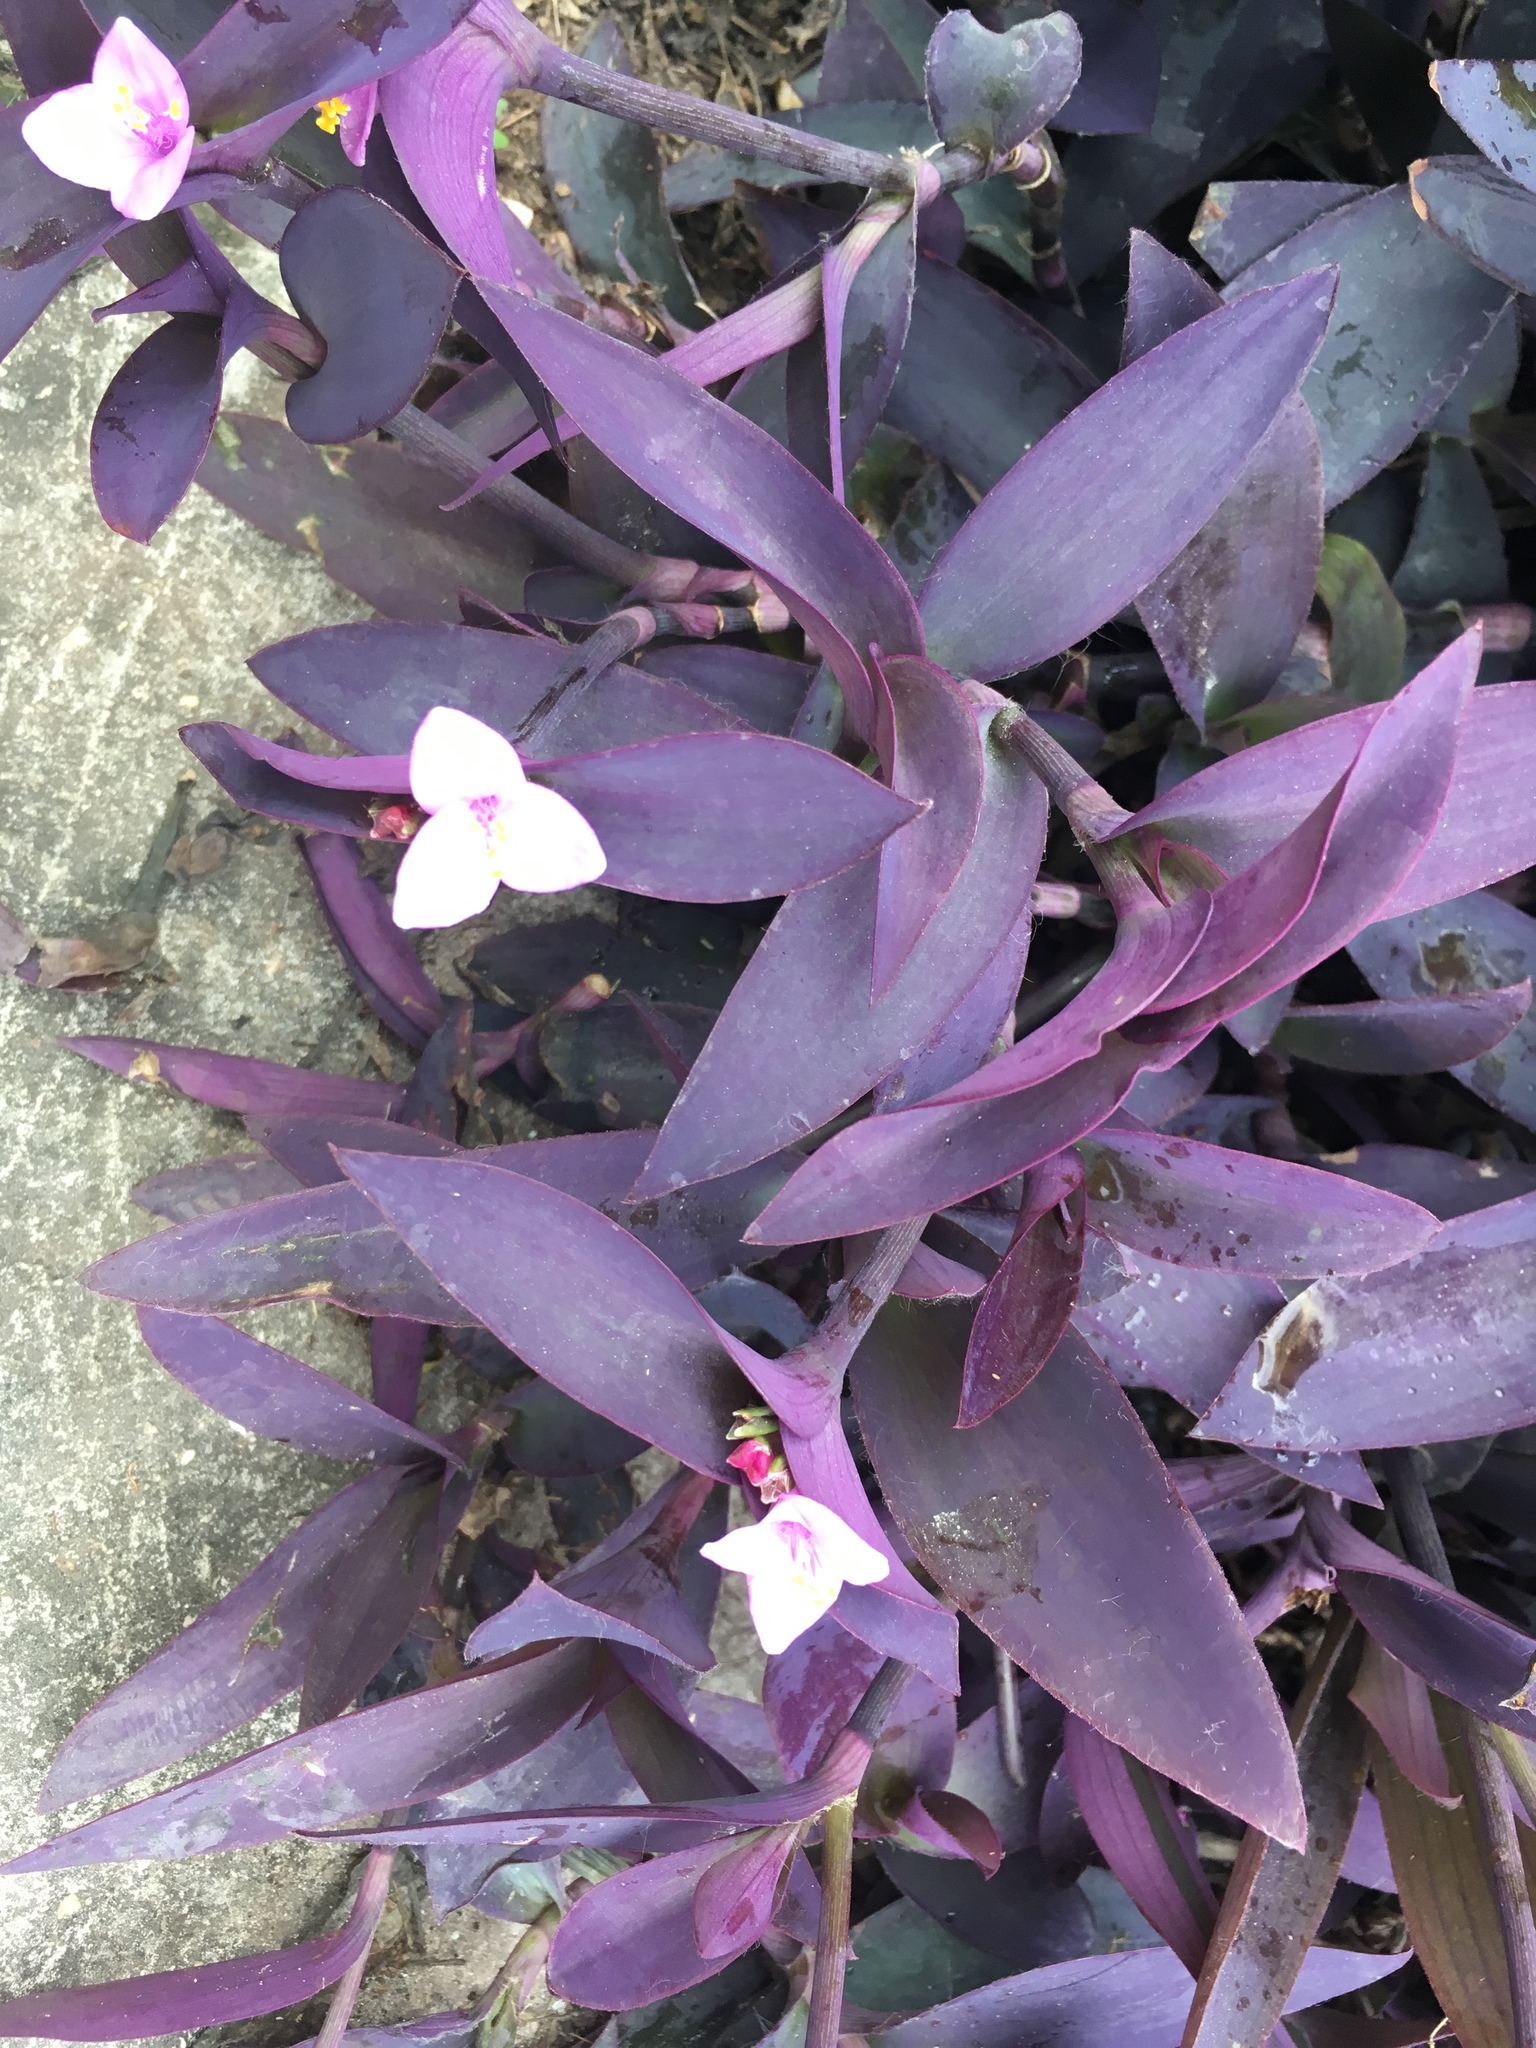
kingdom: Plantae
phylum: Tracheophyta
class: Liliopsida
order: Commelinales
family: Commelinaceae
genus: Tradescantia
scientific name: Tradescantia pallida
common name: Purpleheart
